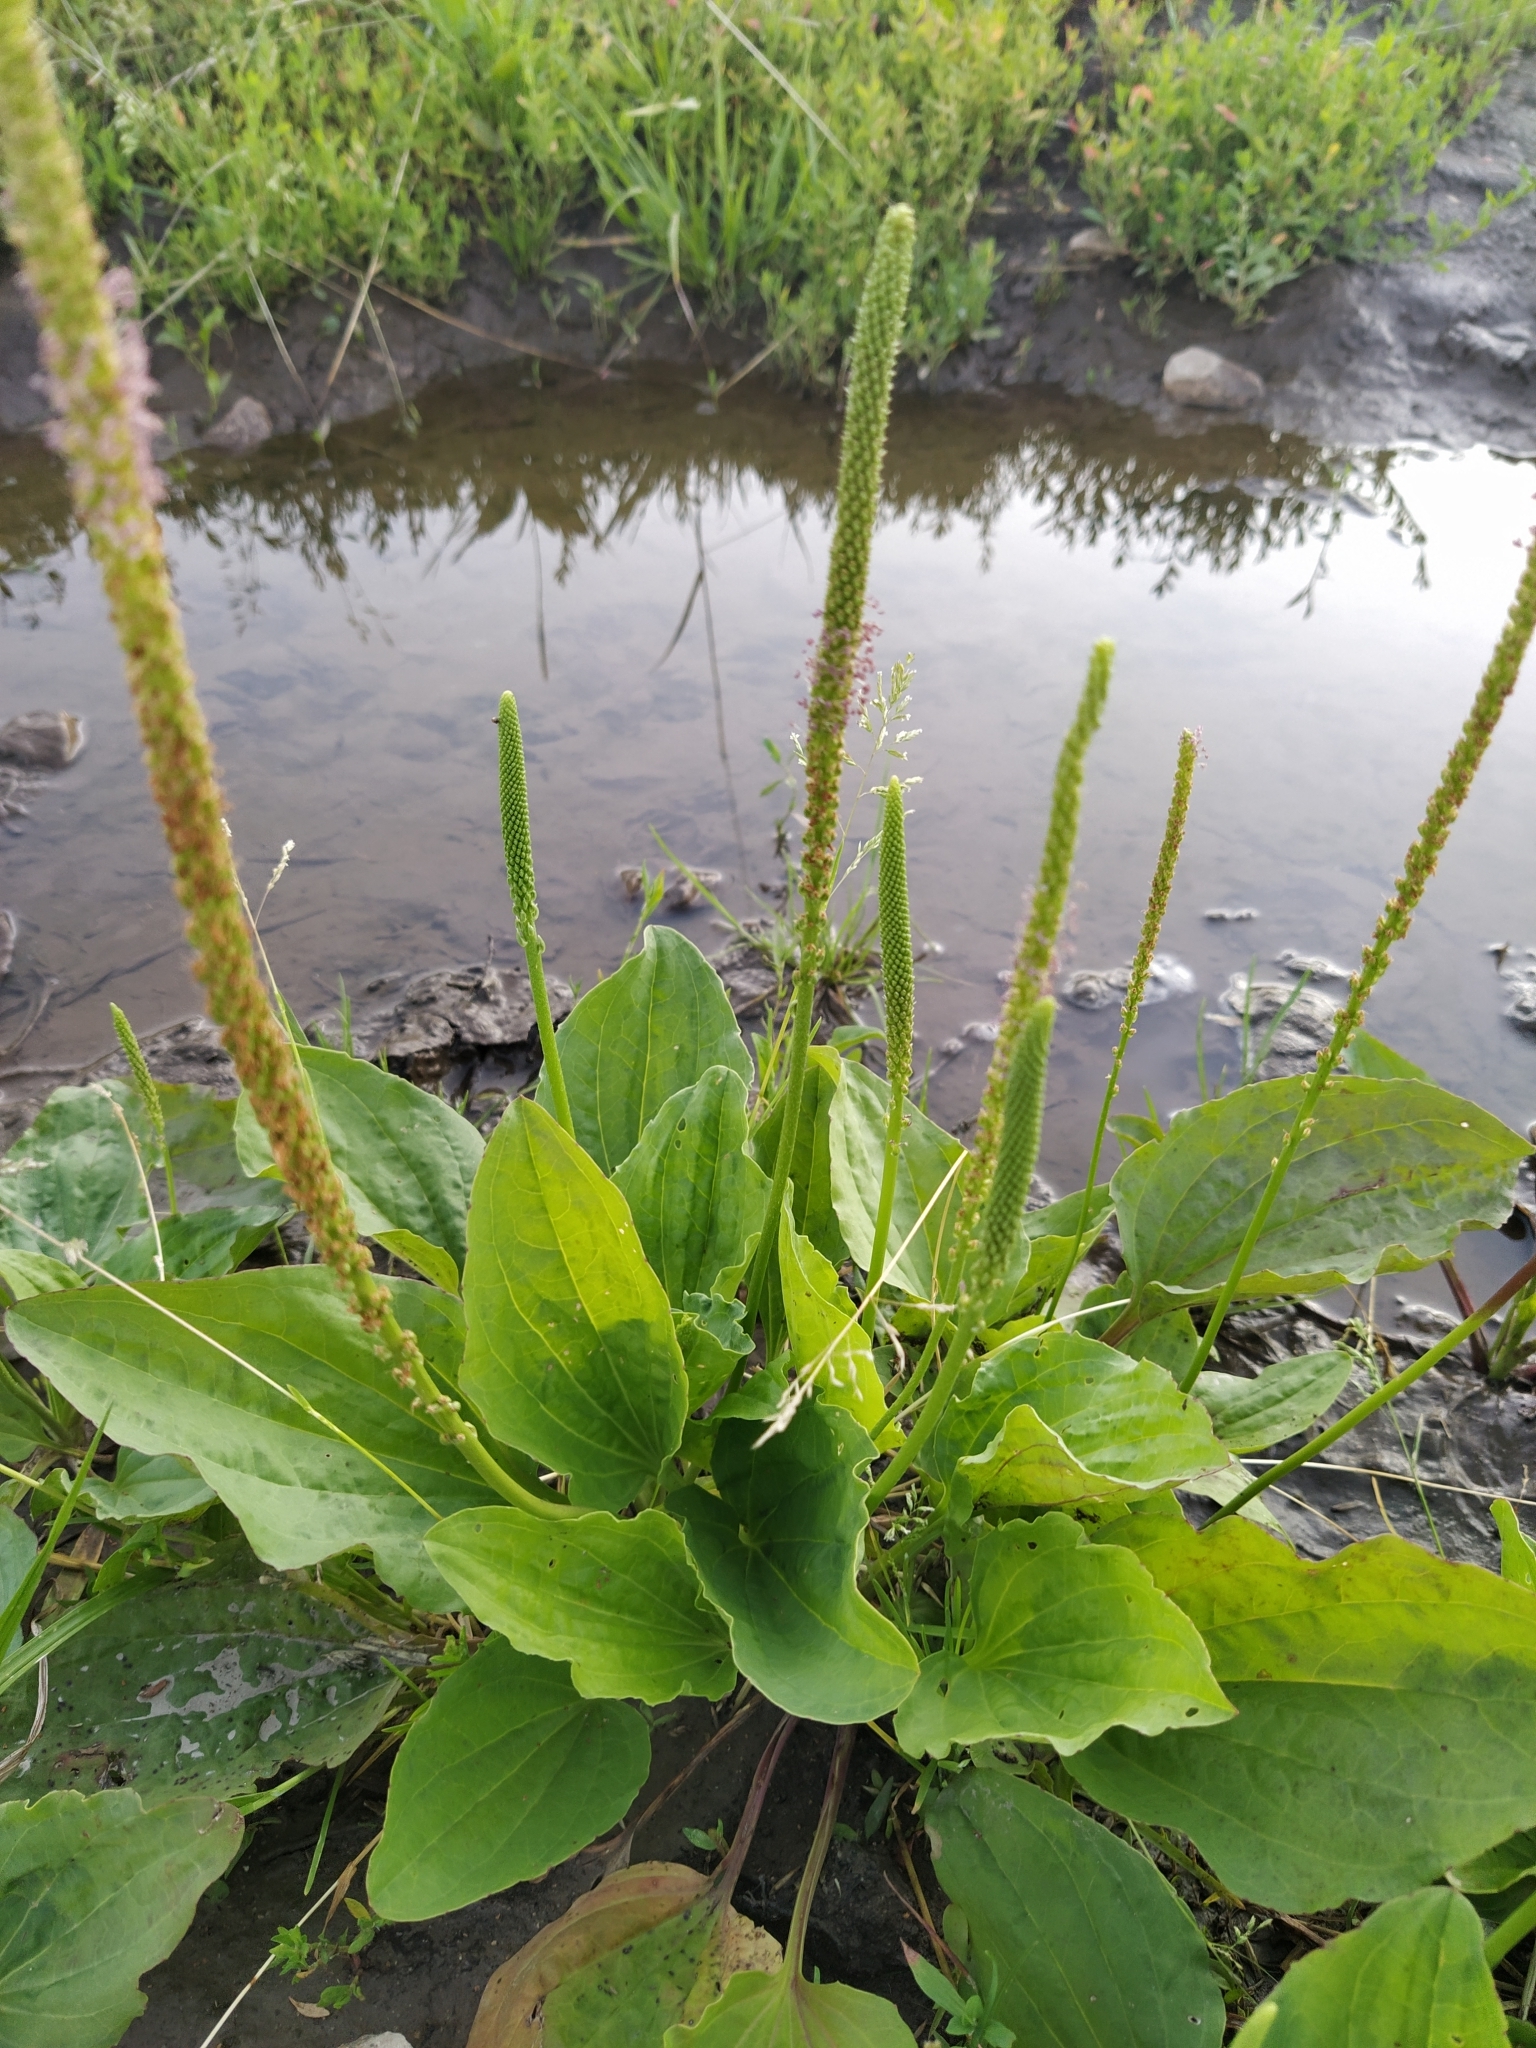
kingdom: Plantae
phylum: Tracheophyta
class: Magnoliopsida
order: Lamiales
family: Plantaginaceae
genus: Plantago
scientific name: Plantago major
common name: Common plantain
